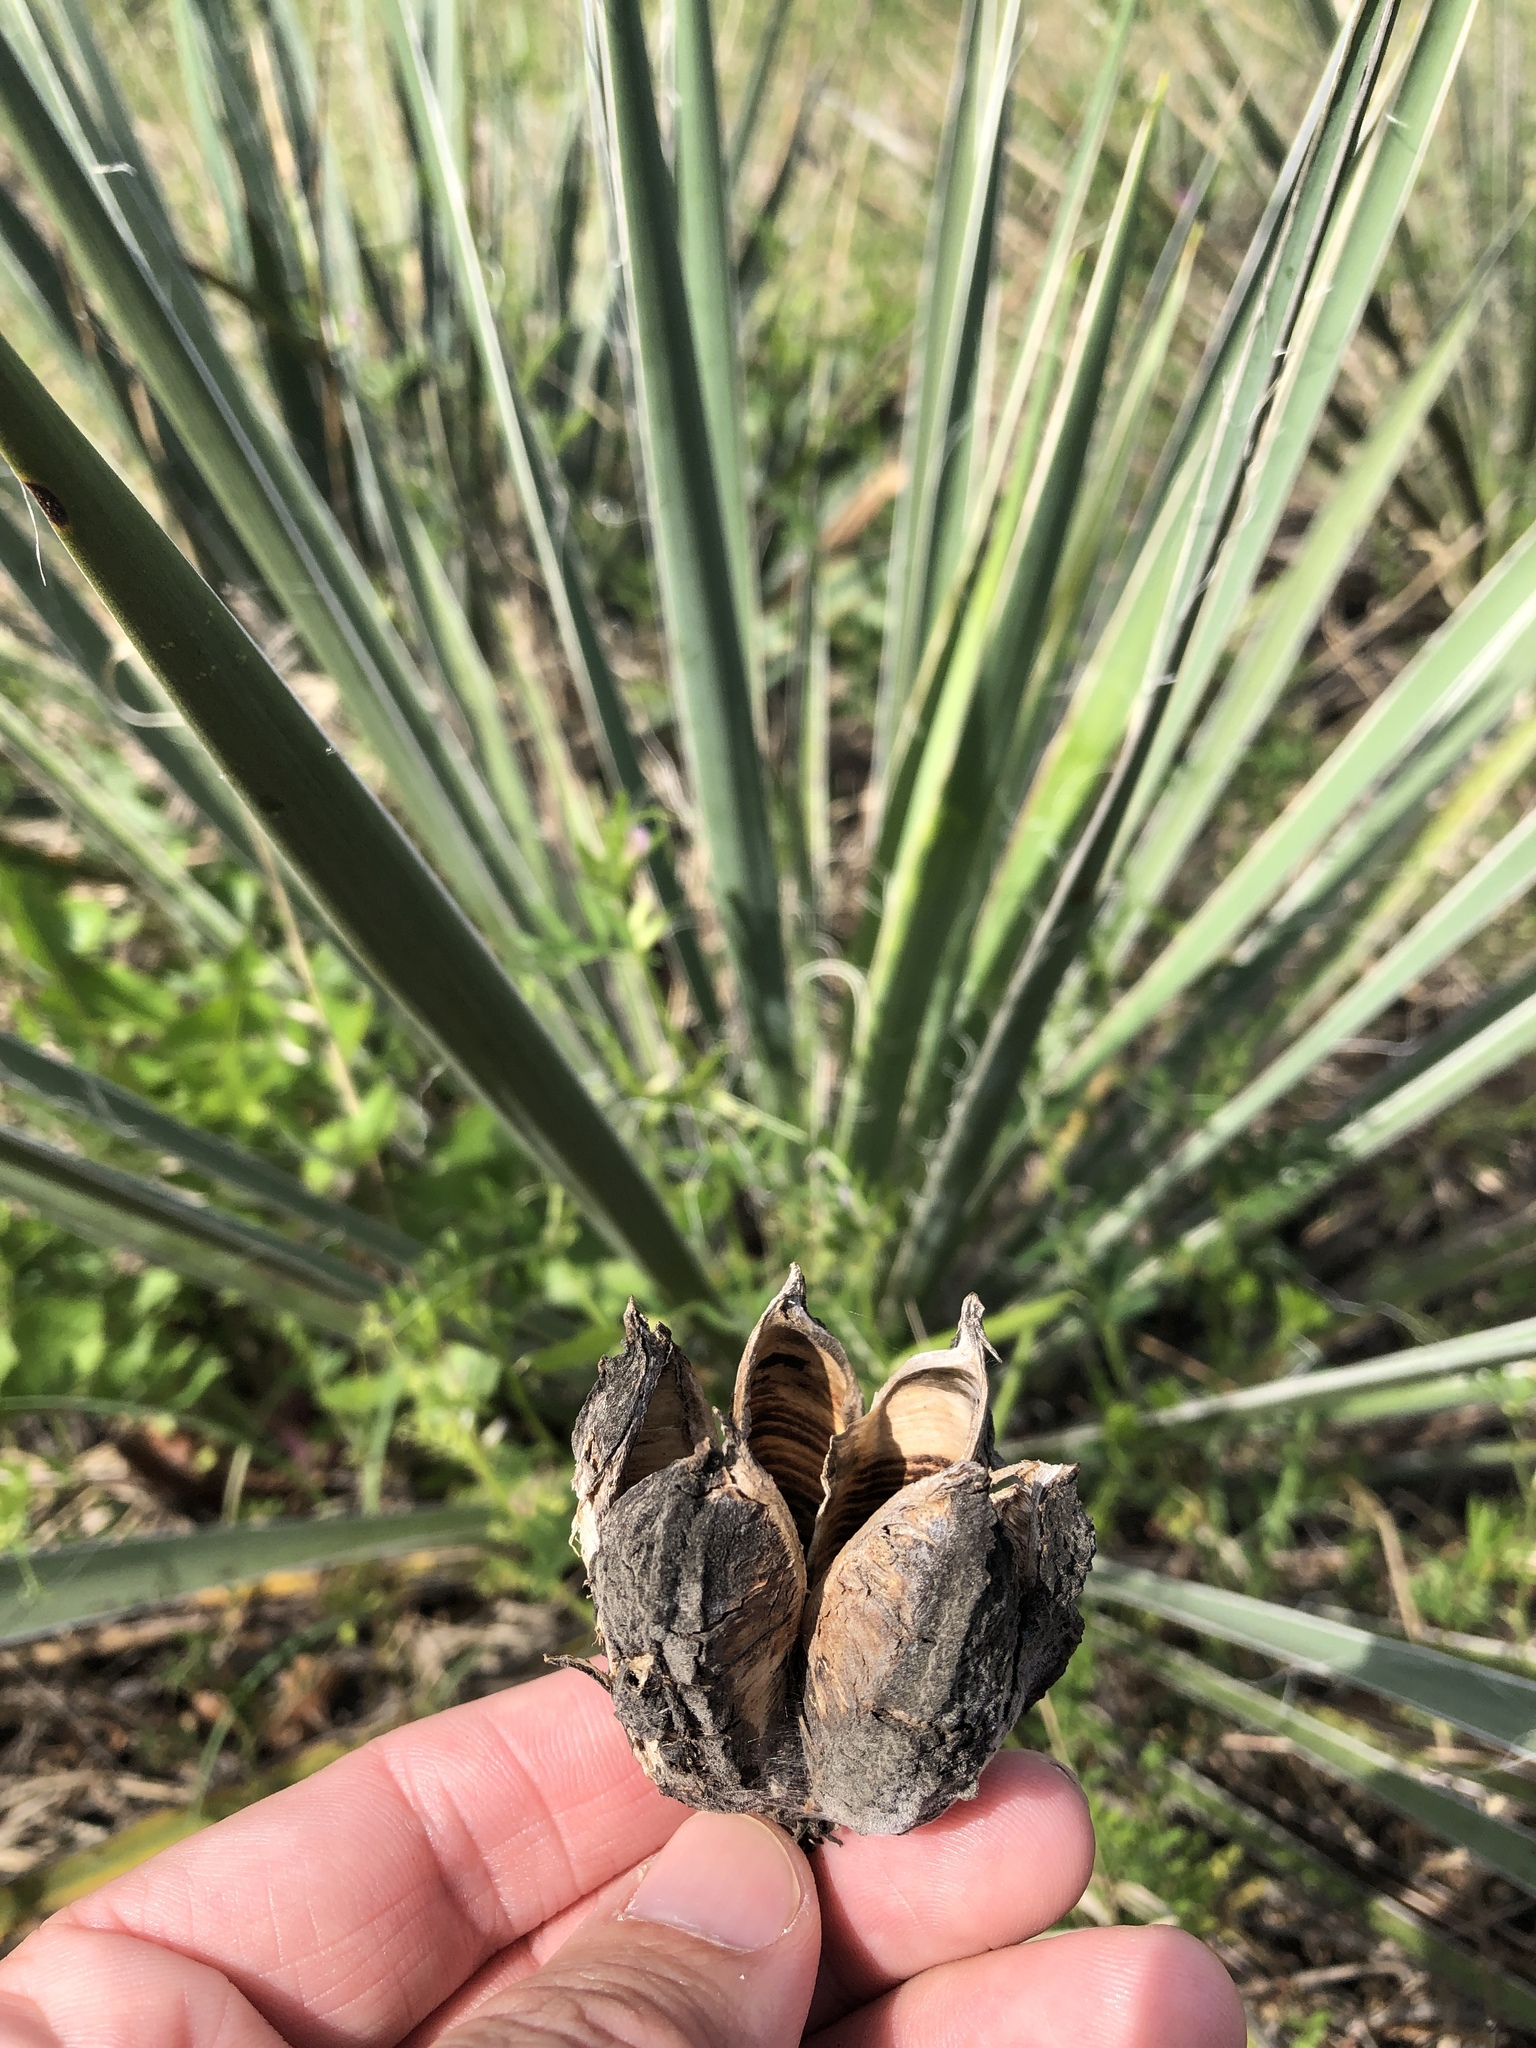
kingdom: Plantae
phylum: Tracheophyta
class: Liliopsida
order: Asparagales
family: Asparagaceae
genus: Yucca
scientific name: Yucca necopina
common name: Glen rose yucca
